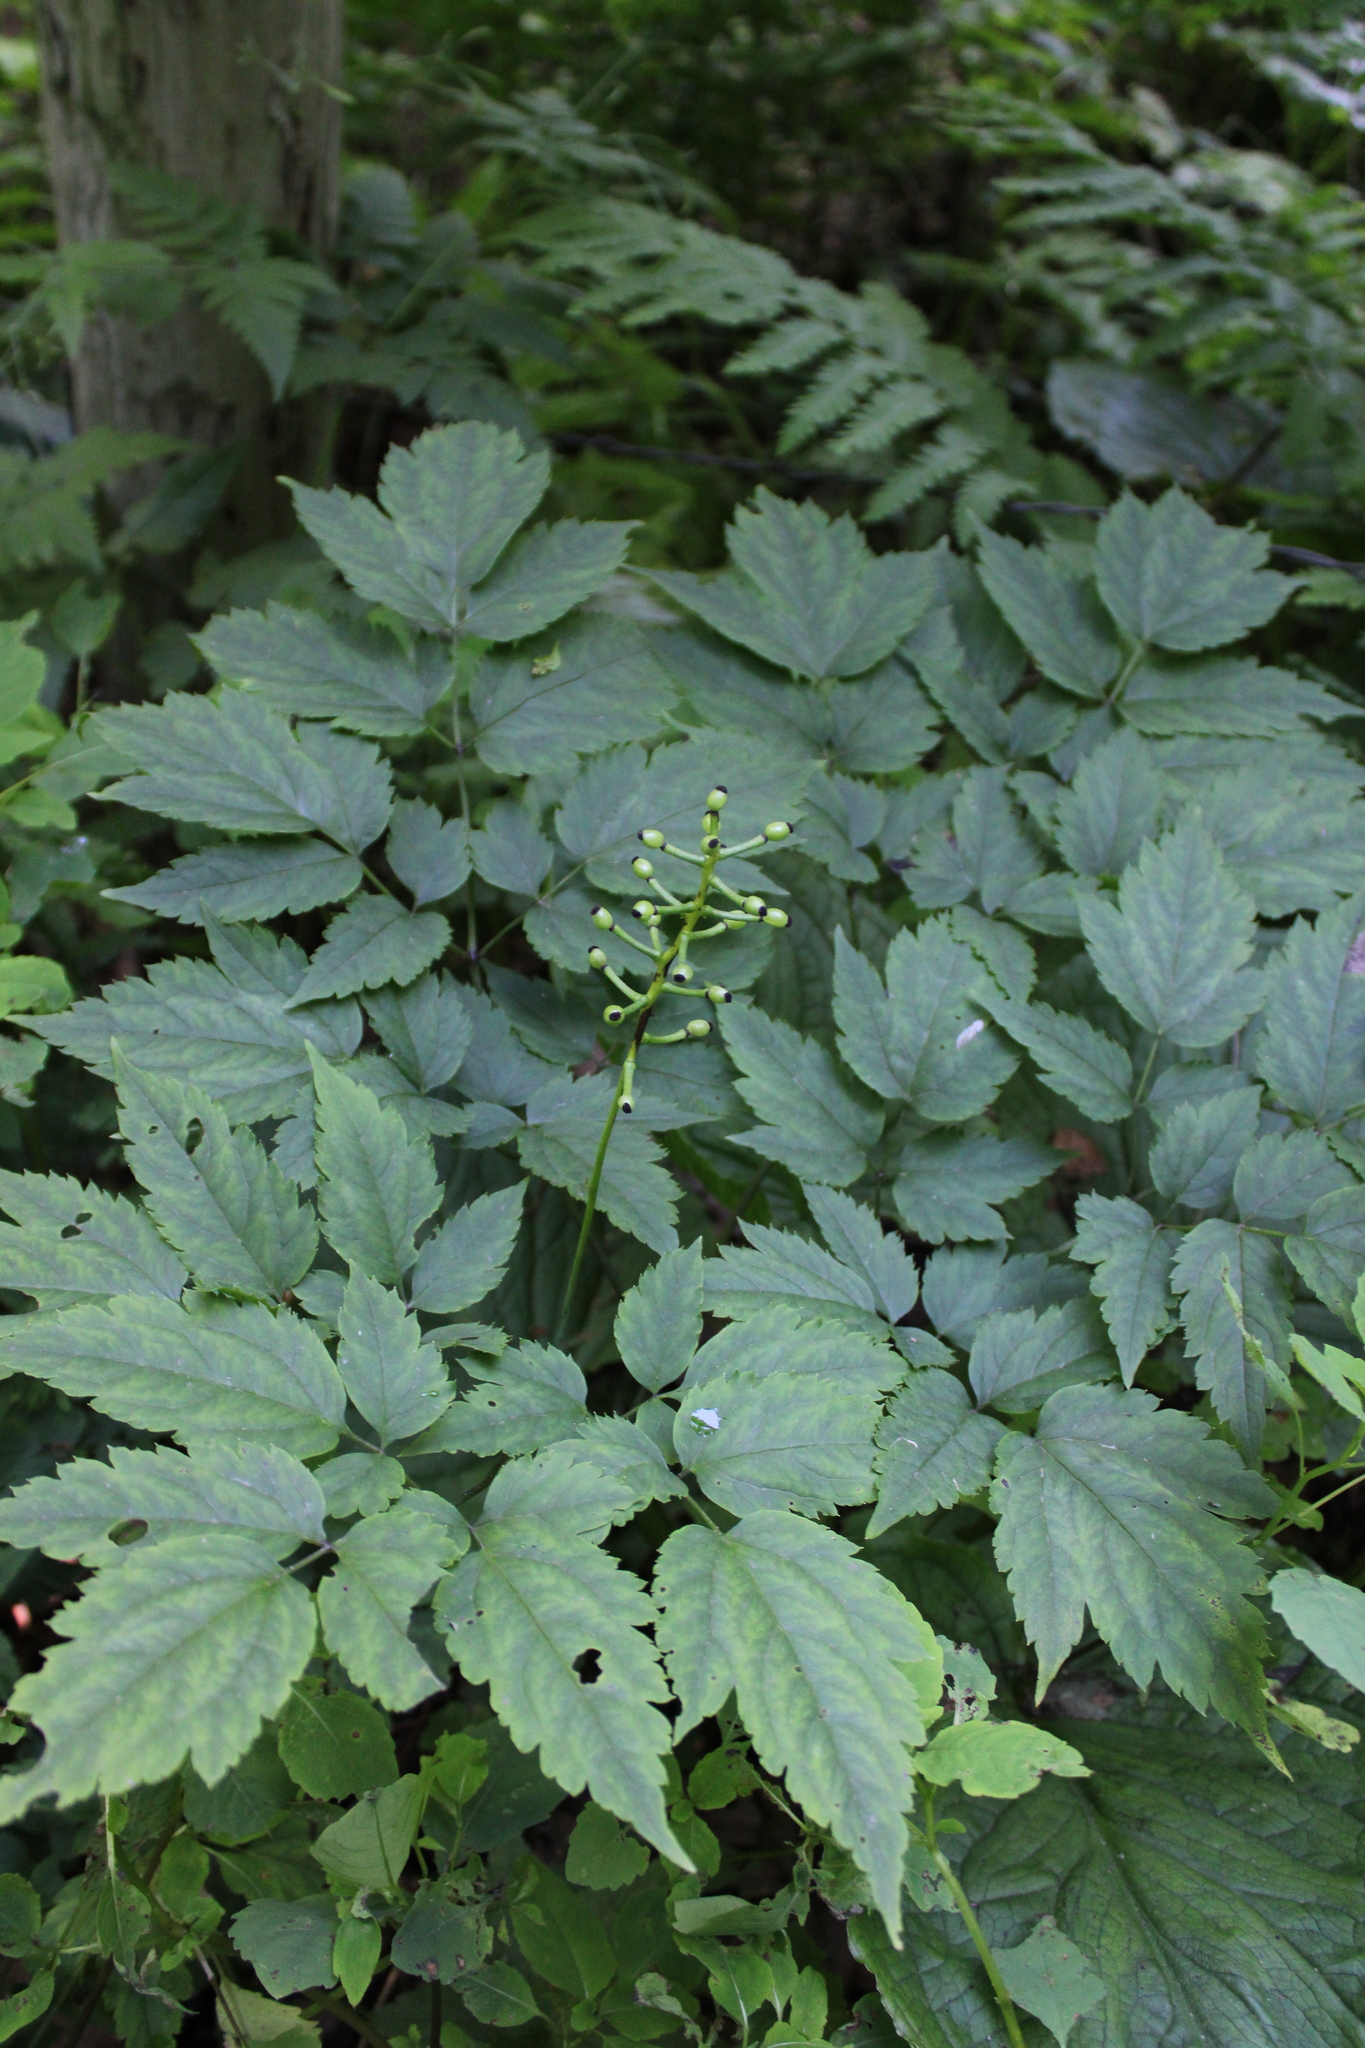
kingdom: Plantae
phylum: Tracheophyta
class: Magnoliopsida
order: Ranunculales
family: Ranunculaceae
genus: Actaea
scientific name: Actaea pachypoda
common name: Doll's-eyes
